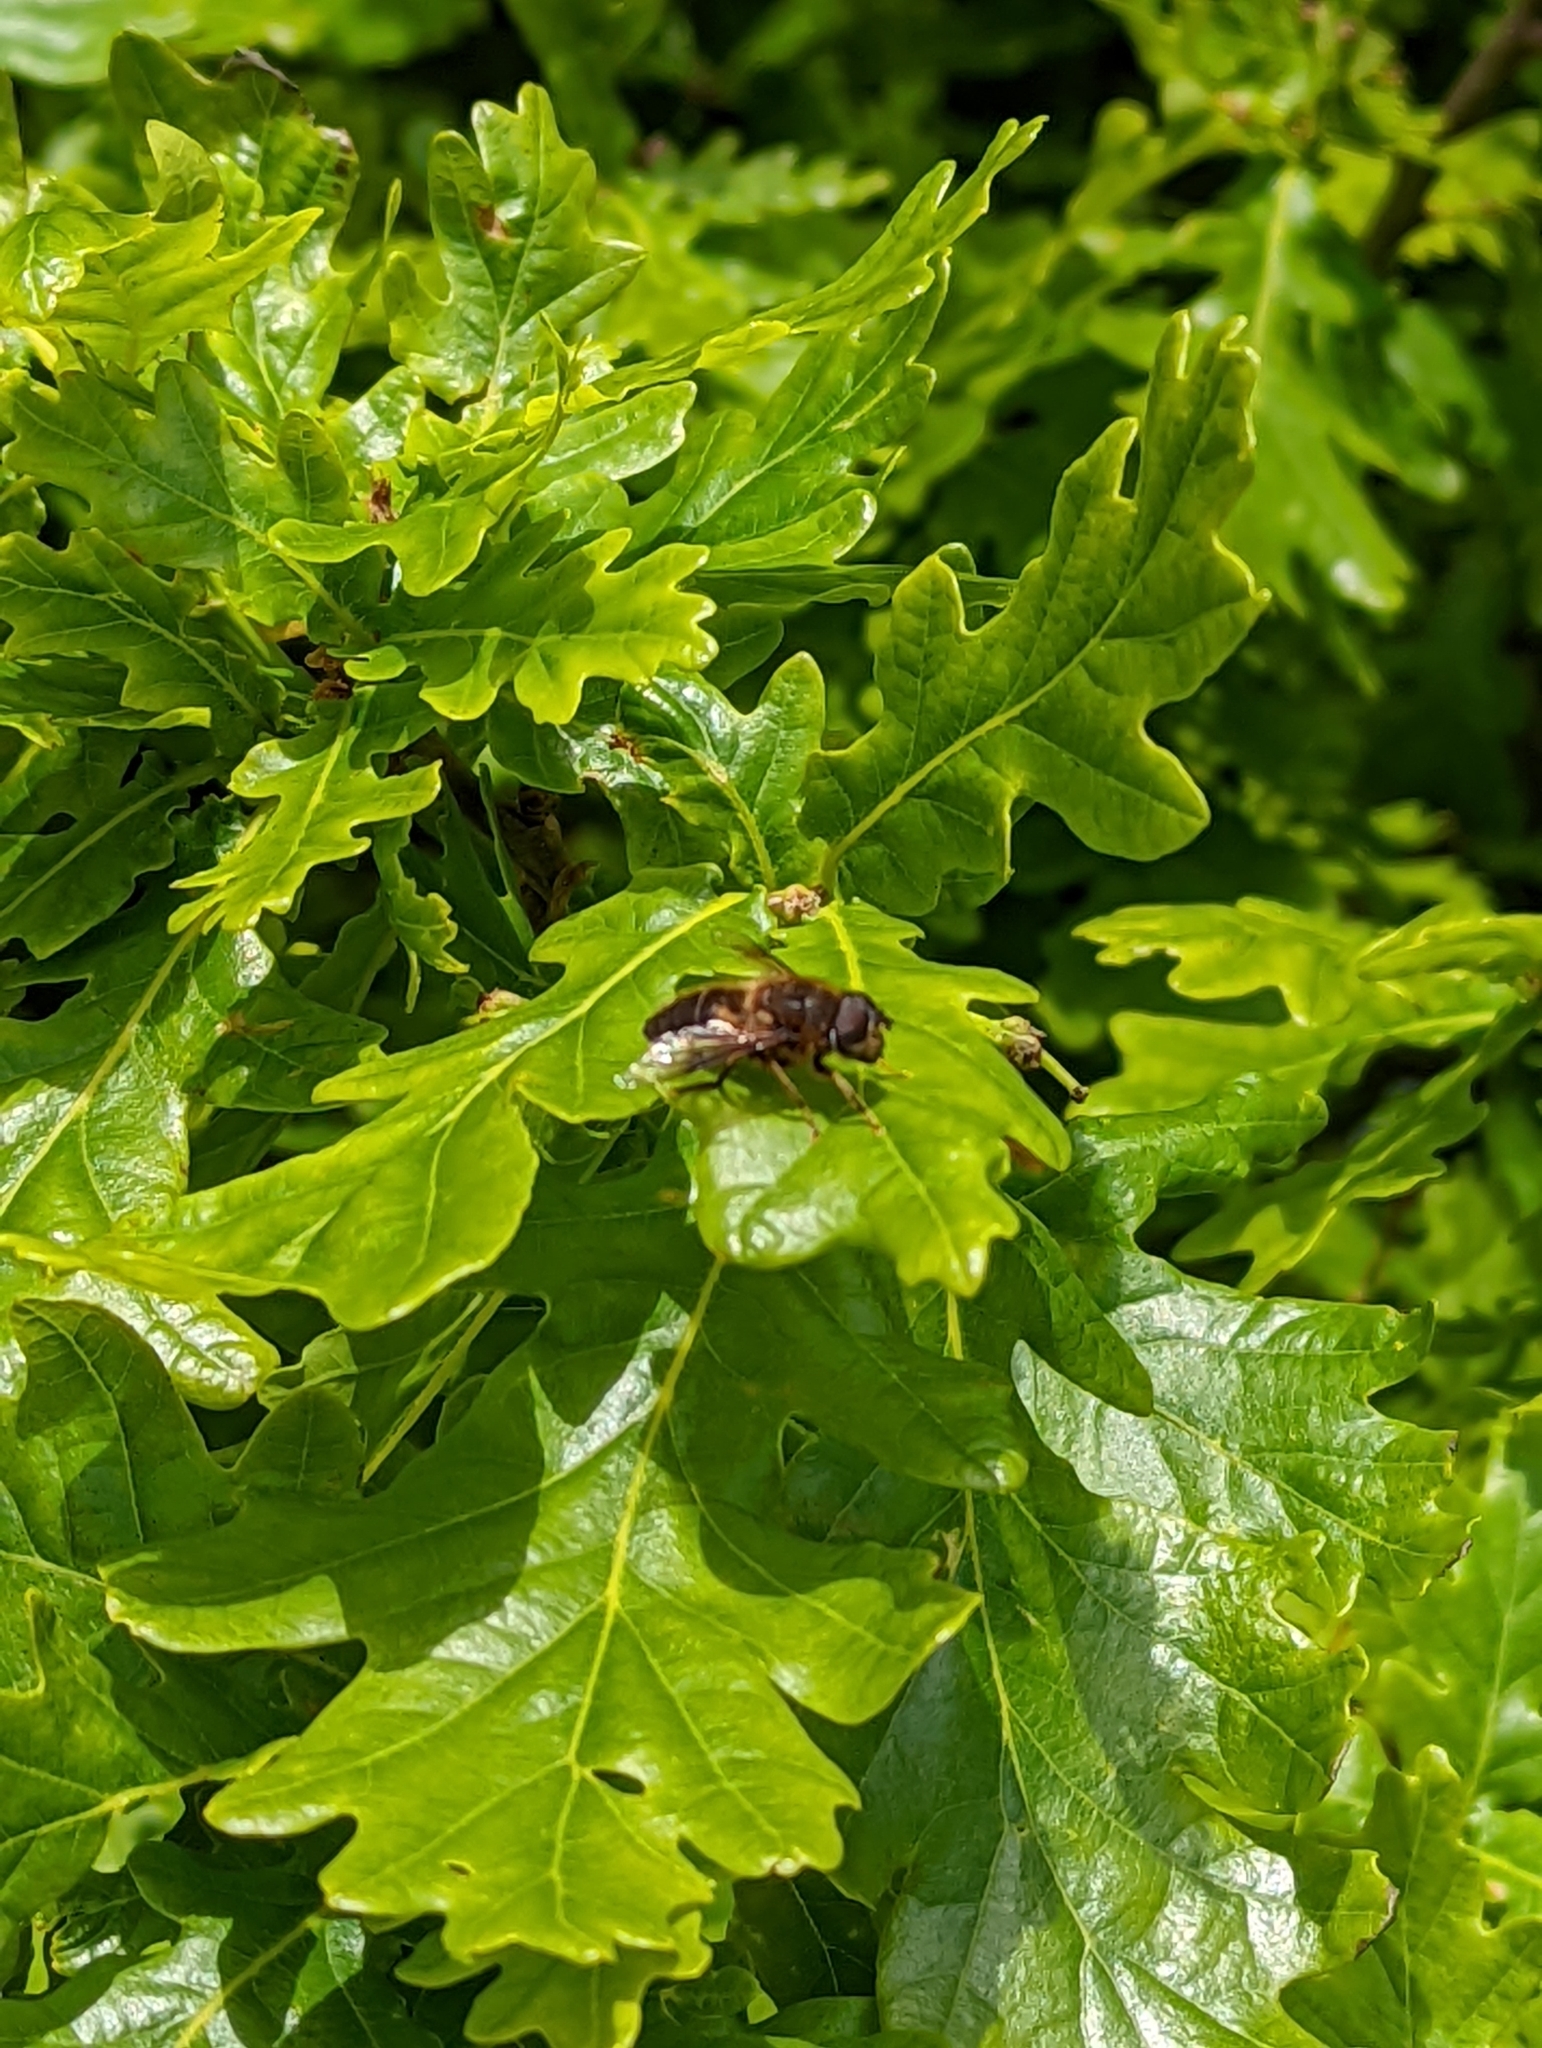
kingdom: Animalia
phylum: Arthropoda
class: Insecta
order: Diptera
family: Syrphidae
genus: Eristalis
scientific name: Eristalis pertinax
